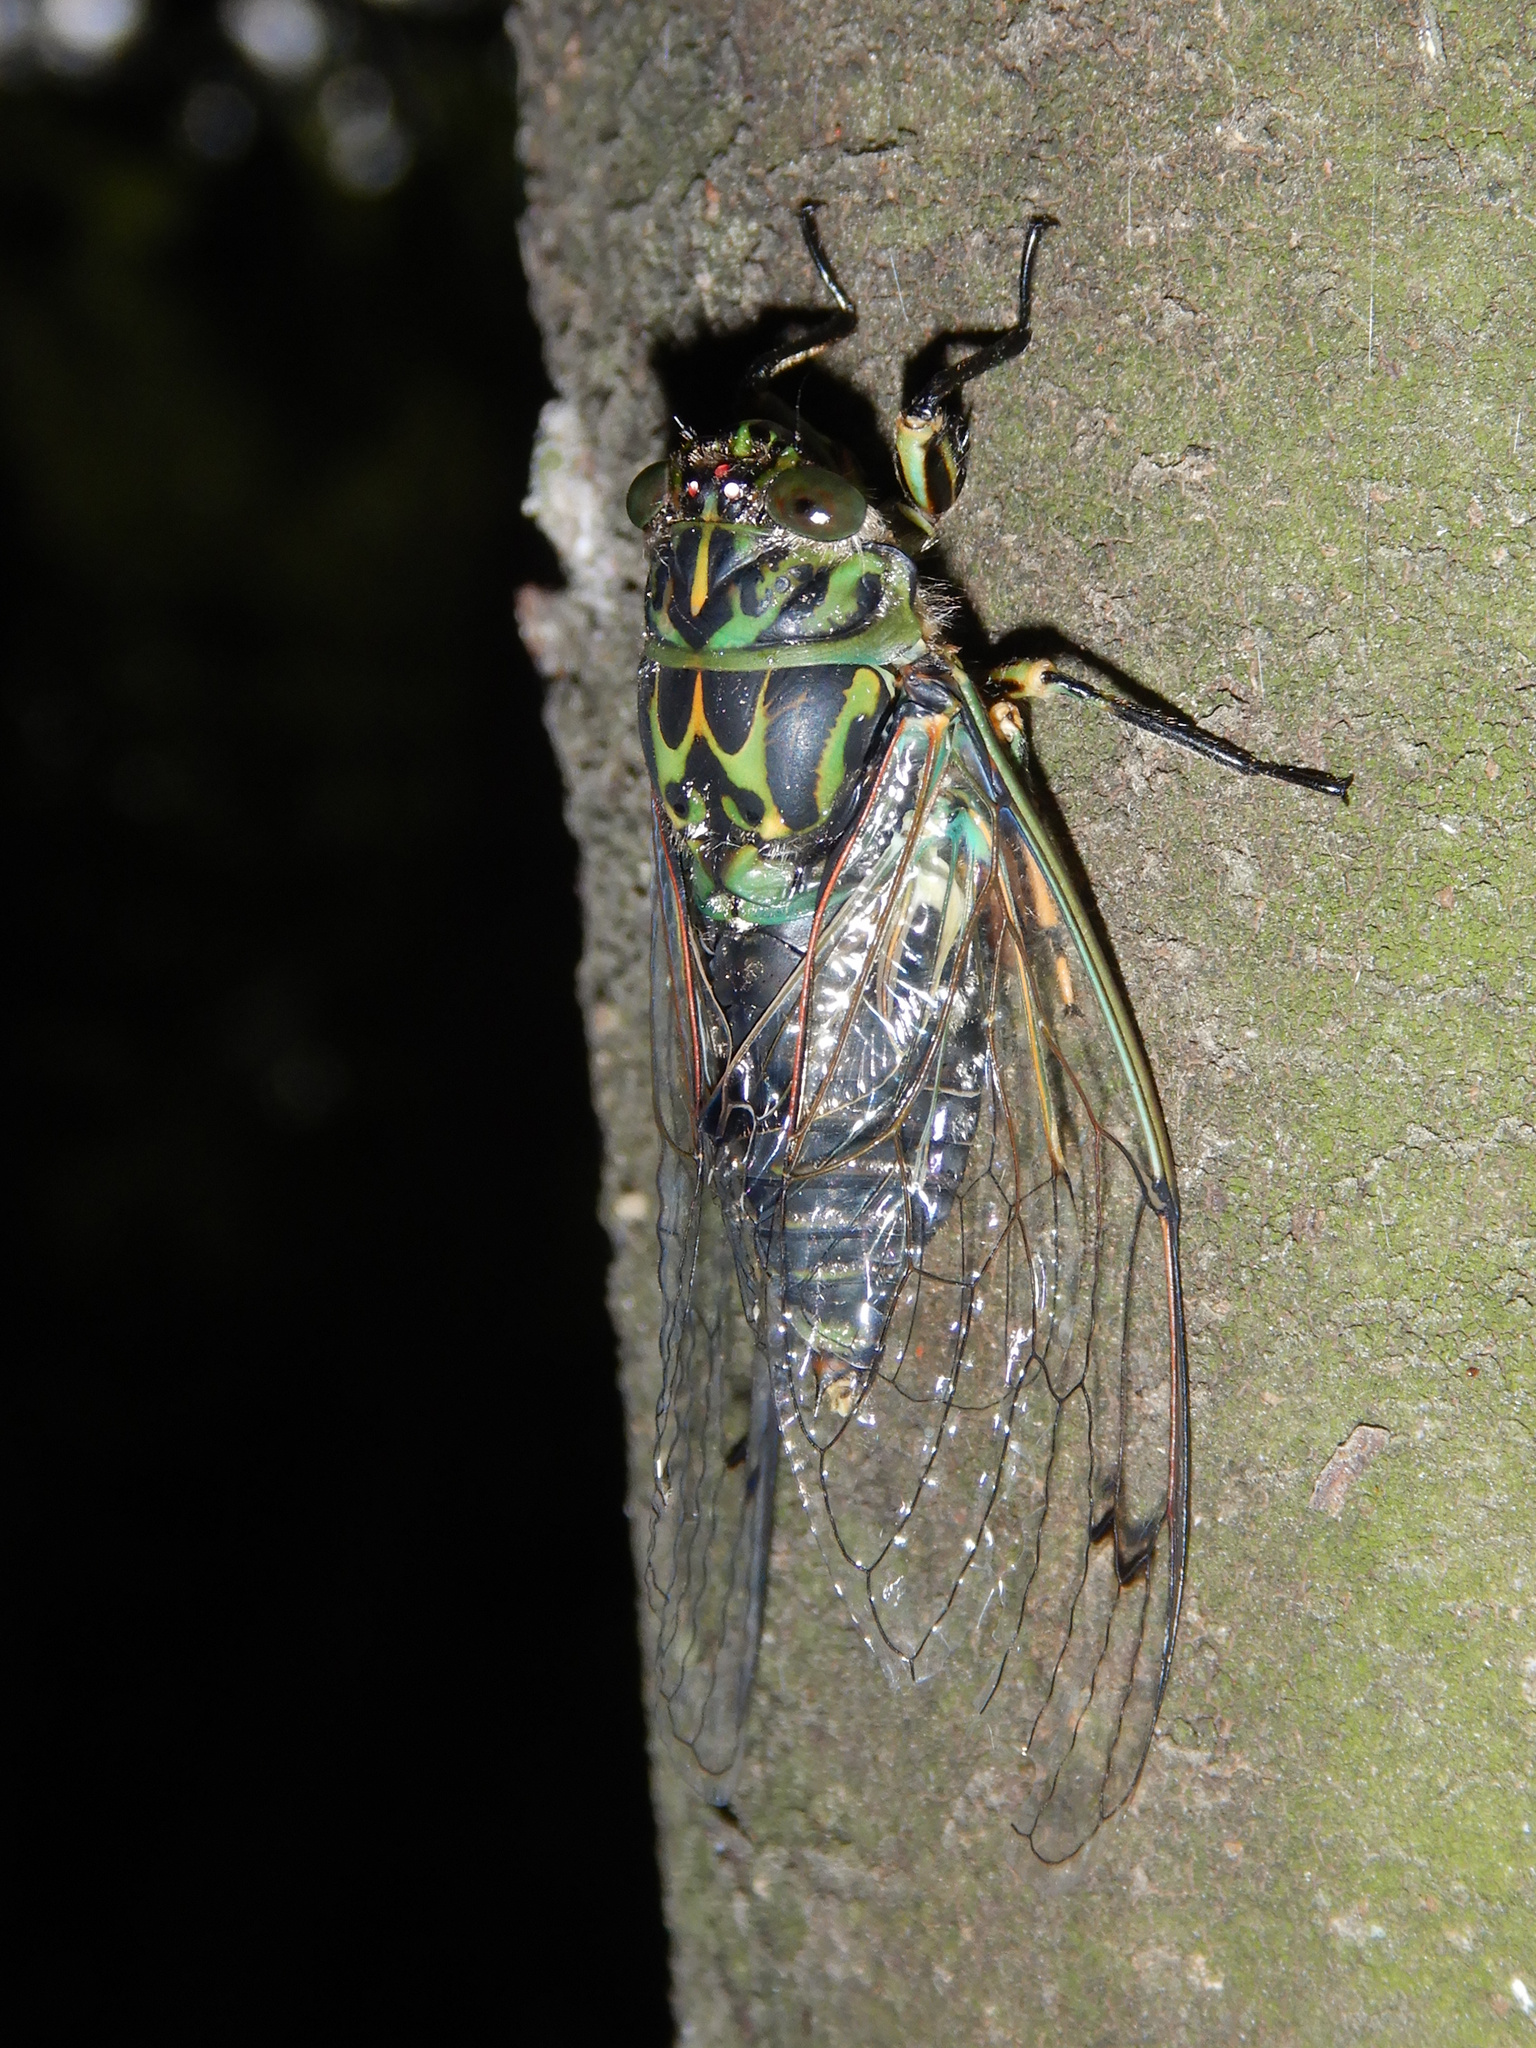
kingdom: Animalia
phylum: Arthropoda
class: Insecta
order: Hemiptera
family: Cicadidae
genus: Amphipsalta
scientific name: Amphipsalta zelandica
